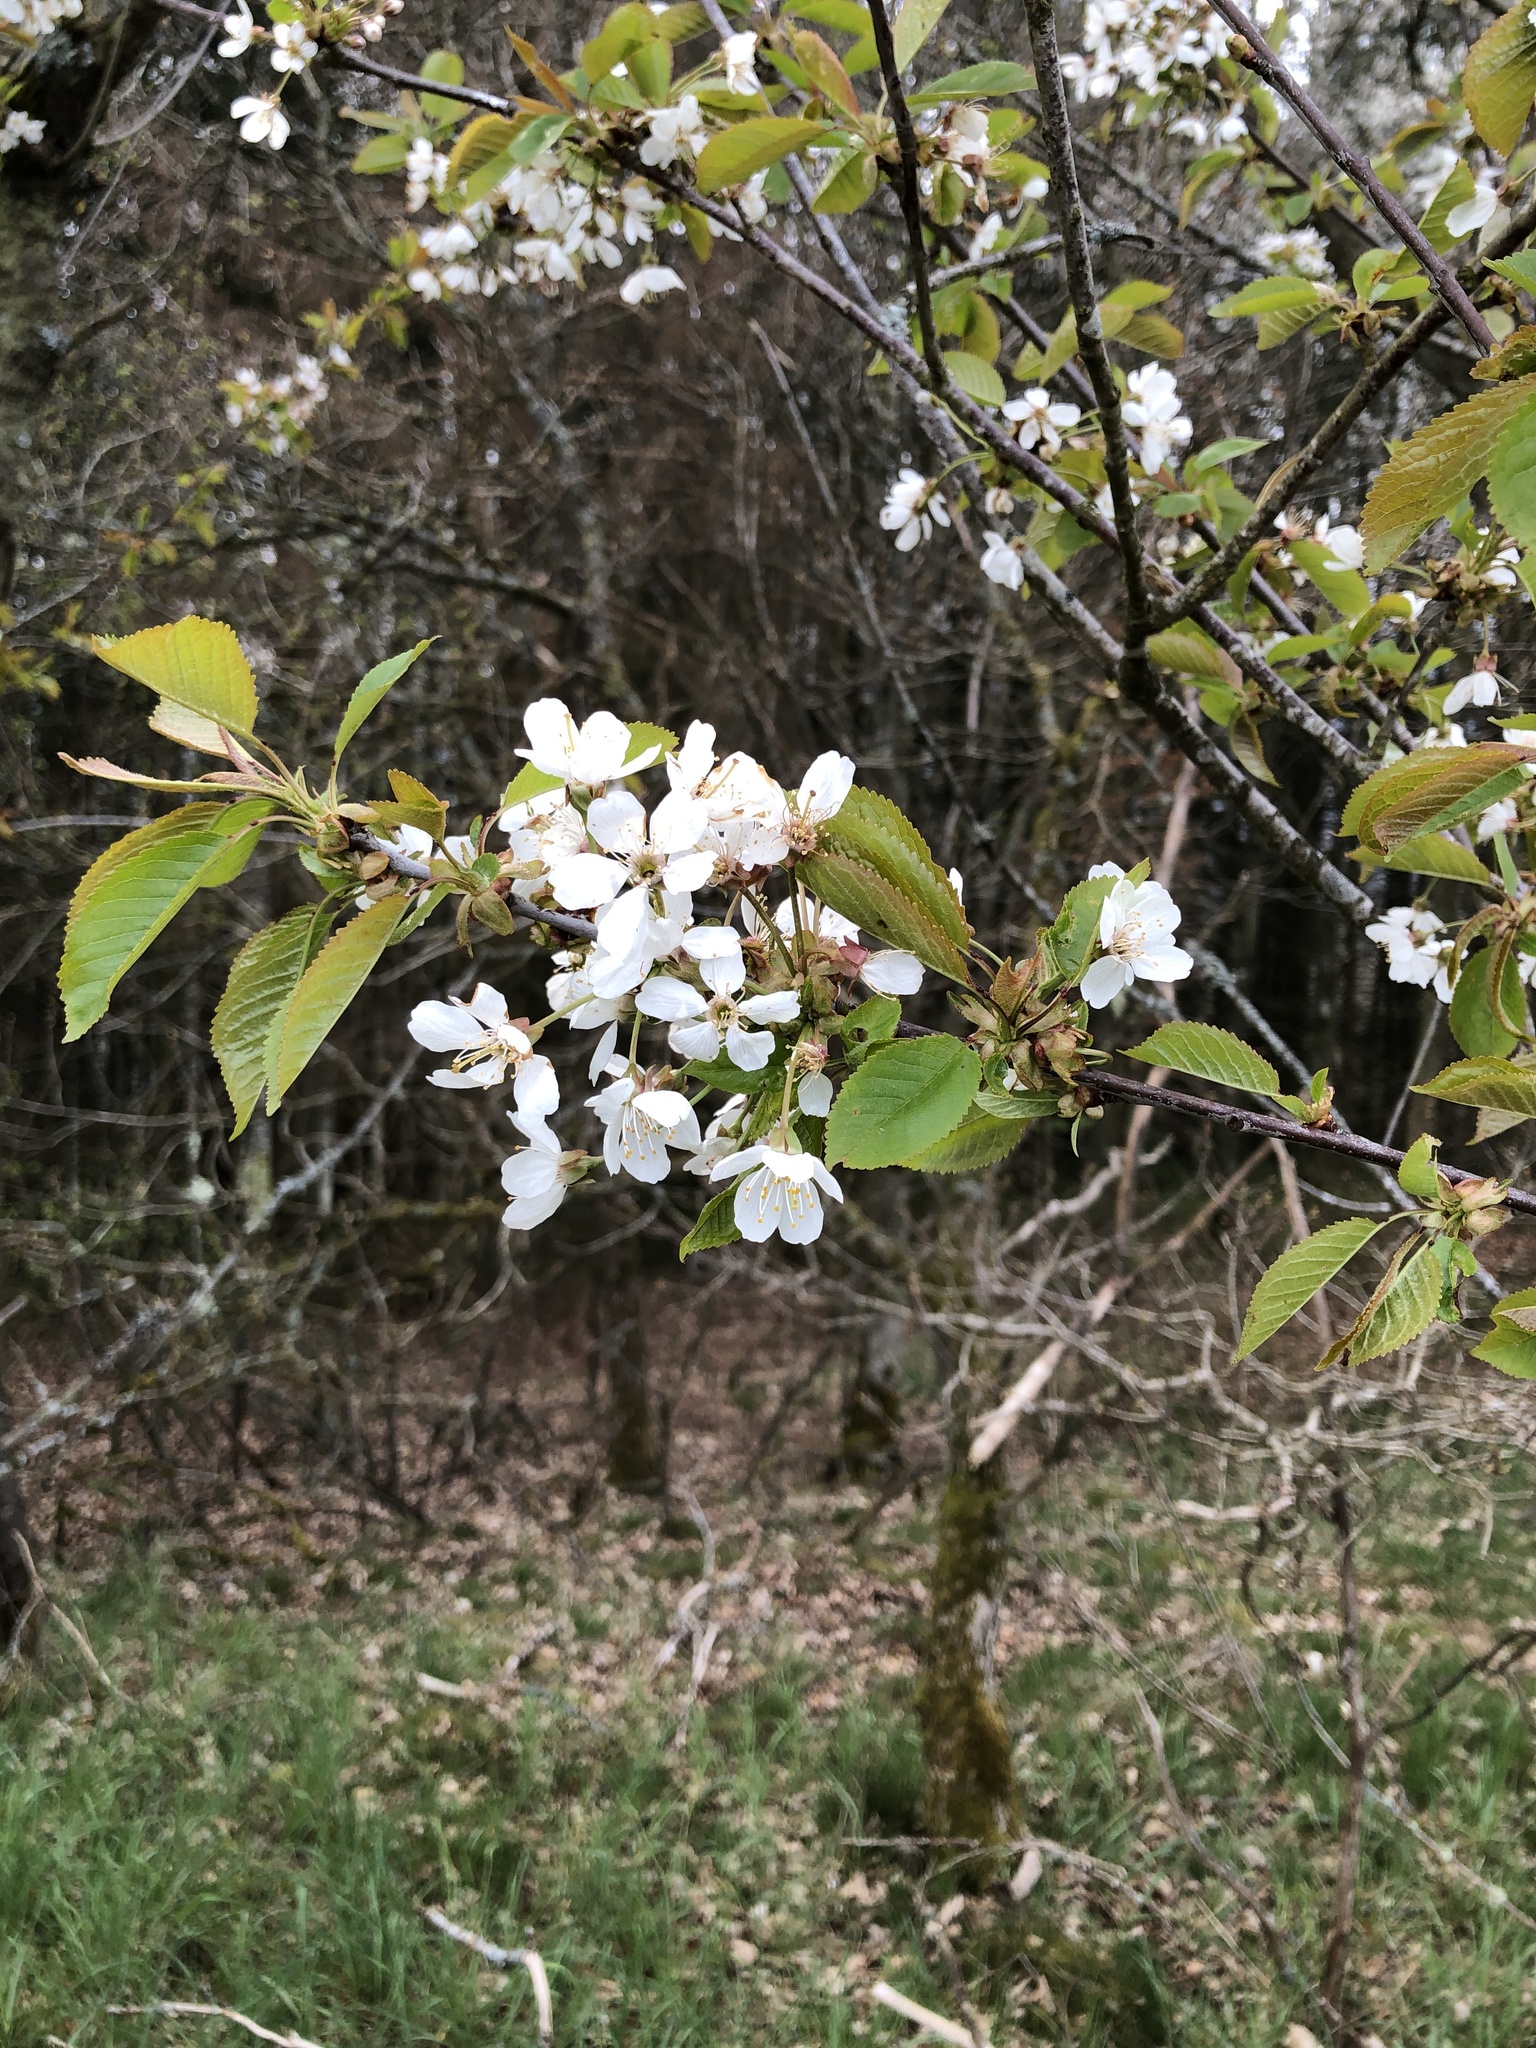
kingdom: Plantae
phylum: Tracheophyta
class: Magnoliopsida
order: Rosales
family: Rosaceae
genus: Prunus
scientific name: Prunus avium
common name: Sweet cherry
